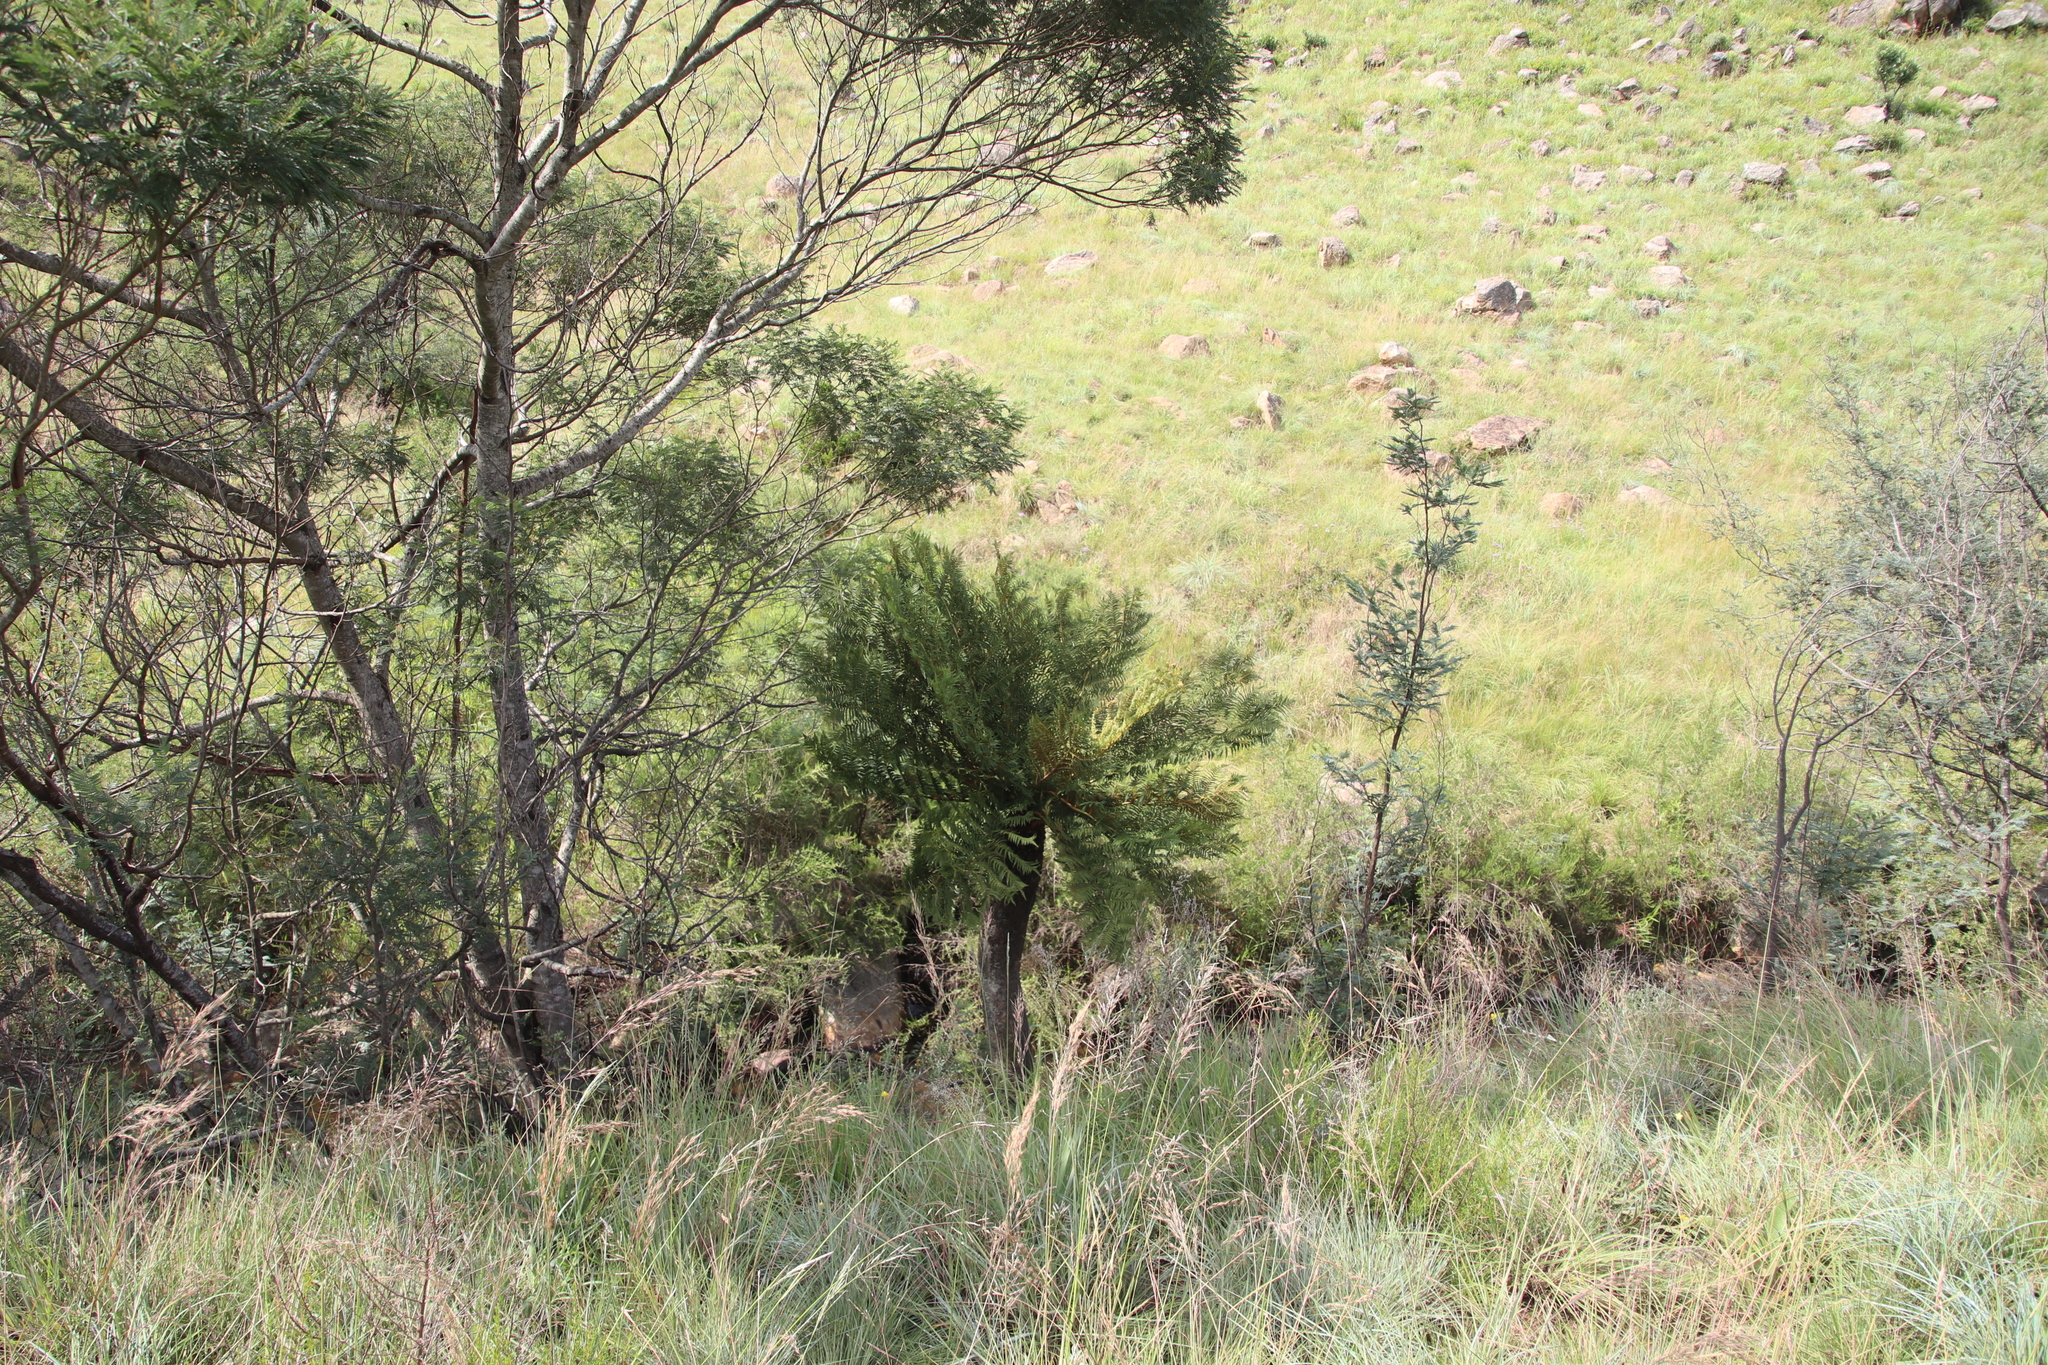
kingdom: Plantae
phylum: Tracheophyta
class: Polypodiopsida
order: Cyatheales
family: Cyatheaceae
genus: Alsophila
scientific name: Alsophila dregei
